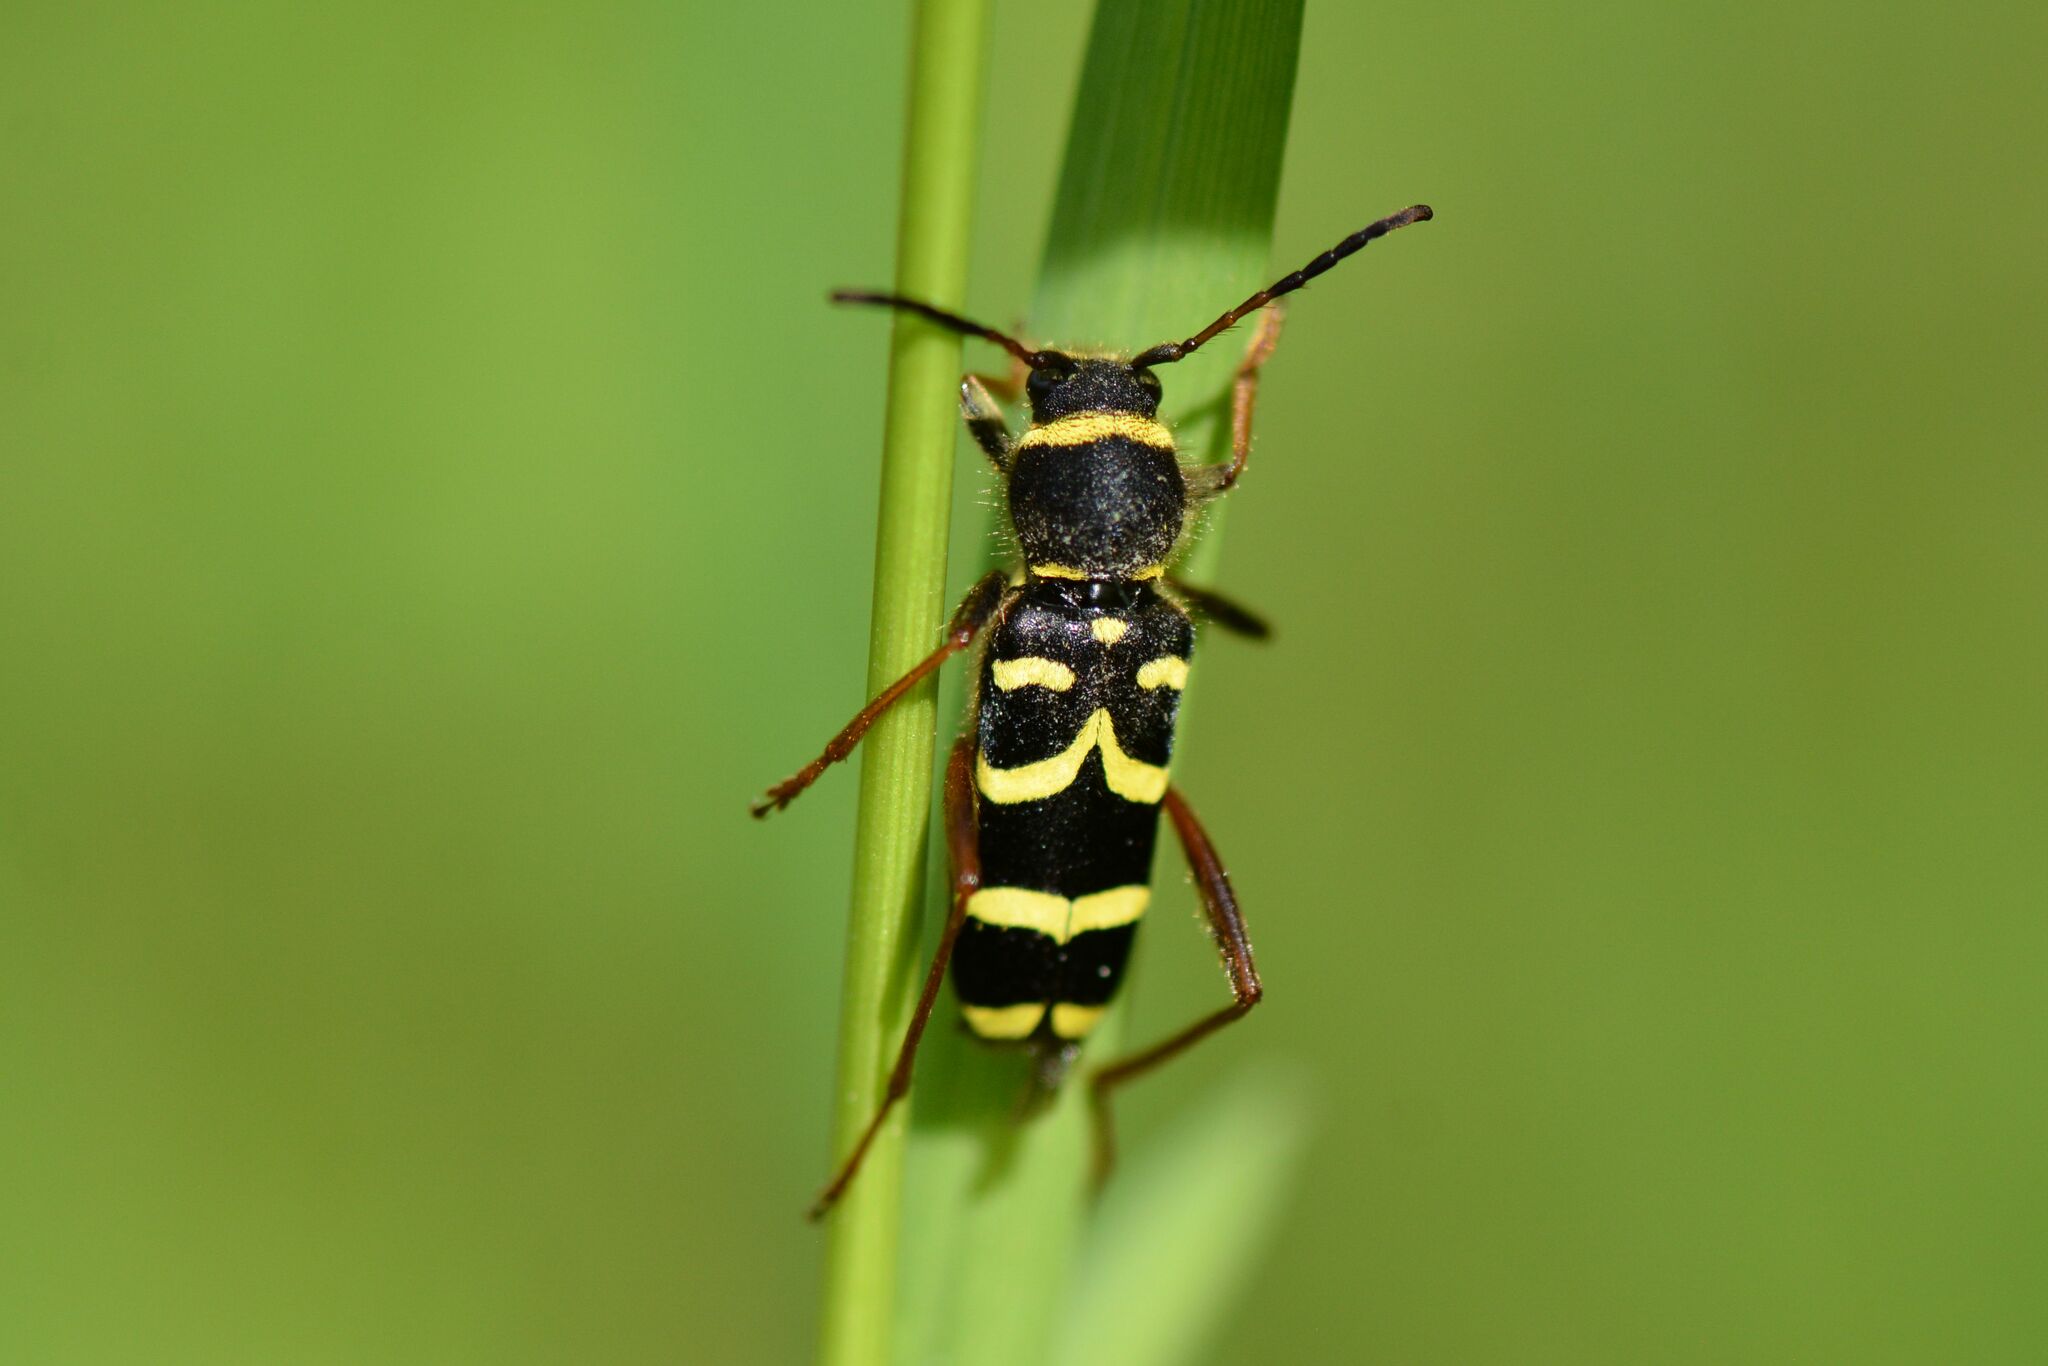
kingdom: Animalia
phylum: Arthropoda
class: Insecta
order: Coleoptera
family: Cerambycidae
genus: Clytus
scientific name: Clytus arietis
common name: Wasp beetle
